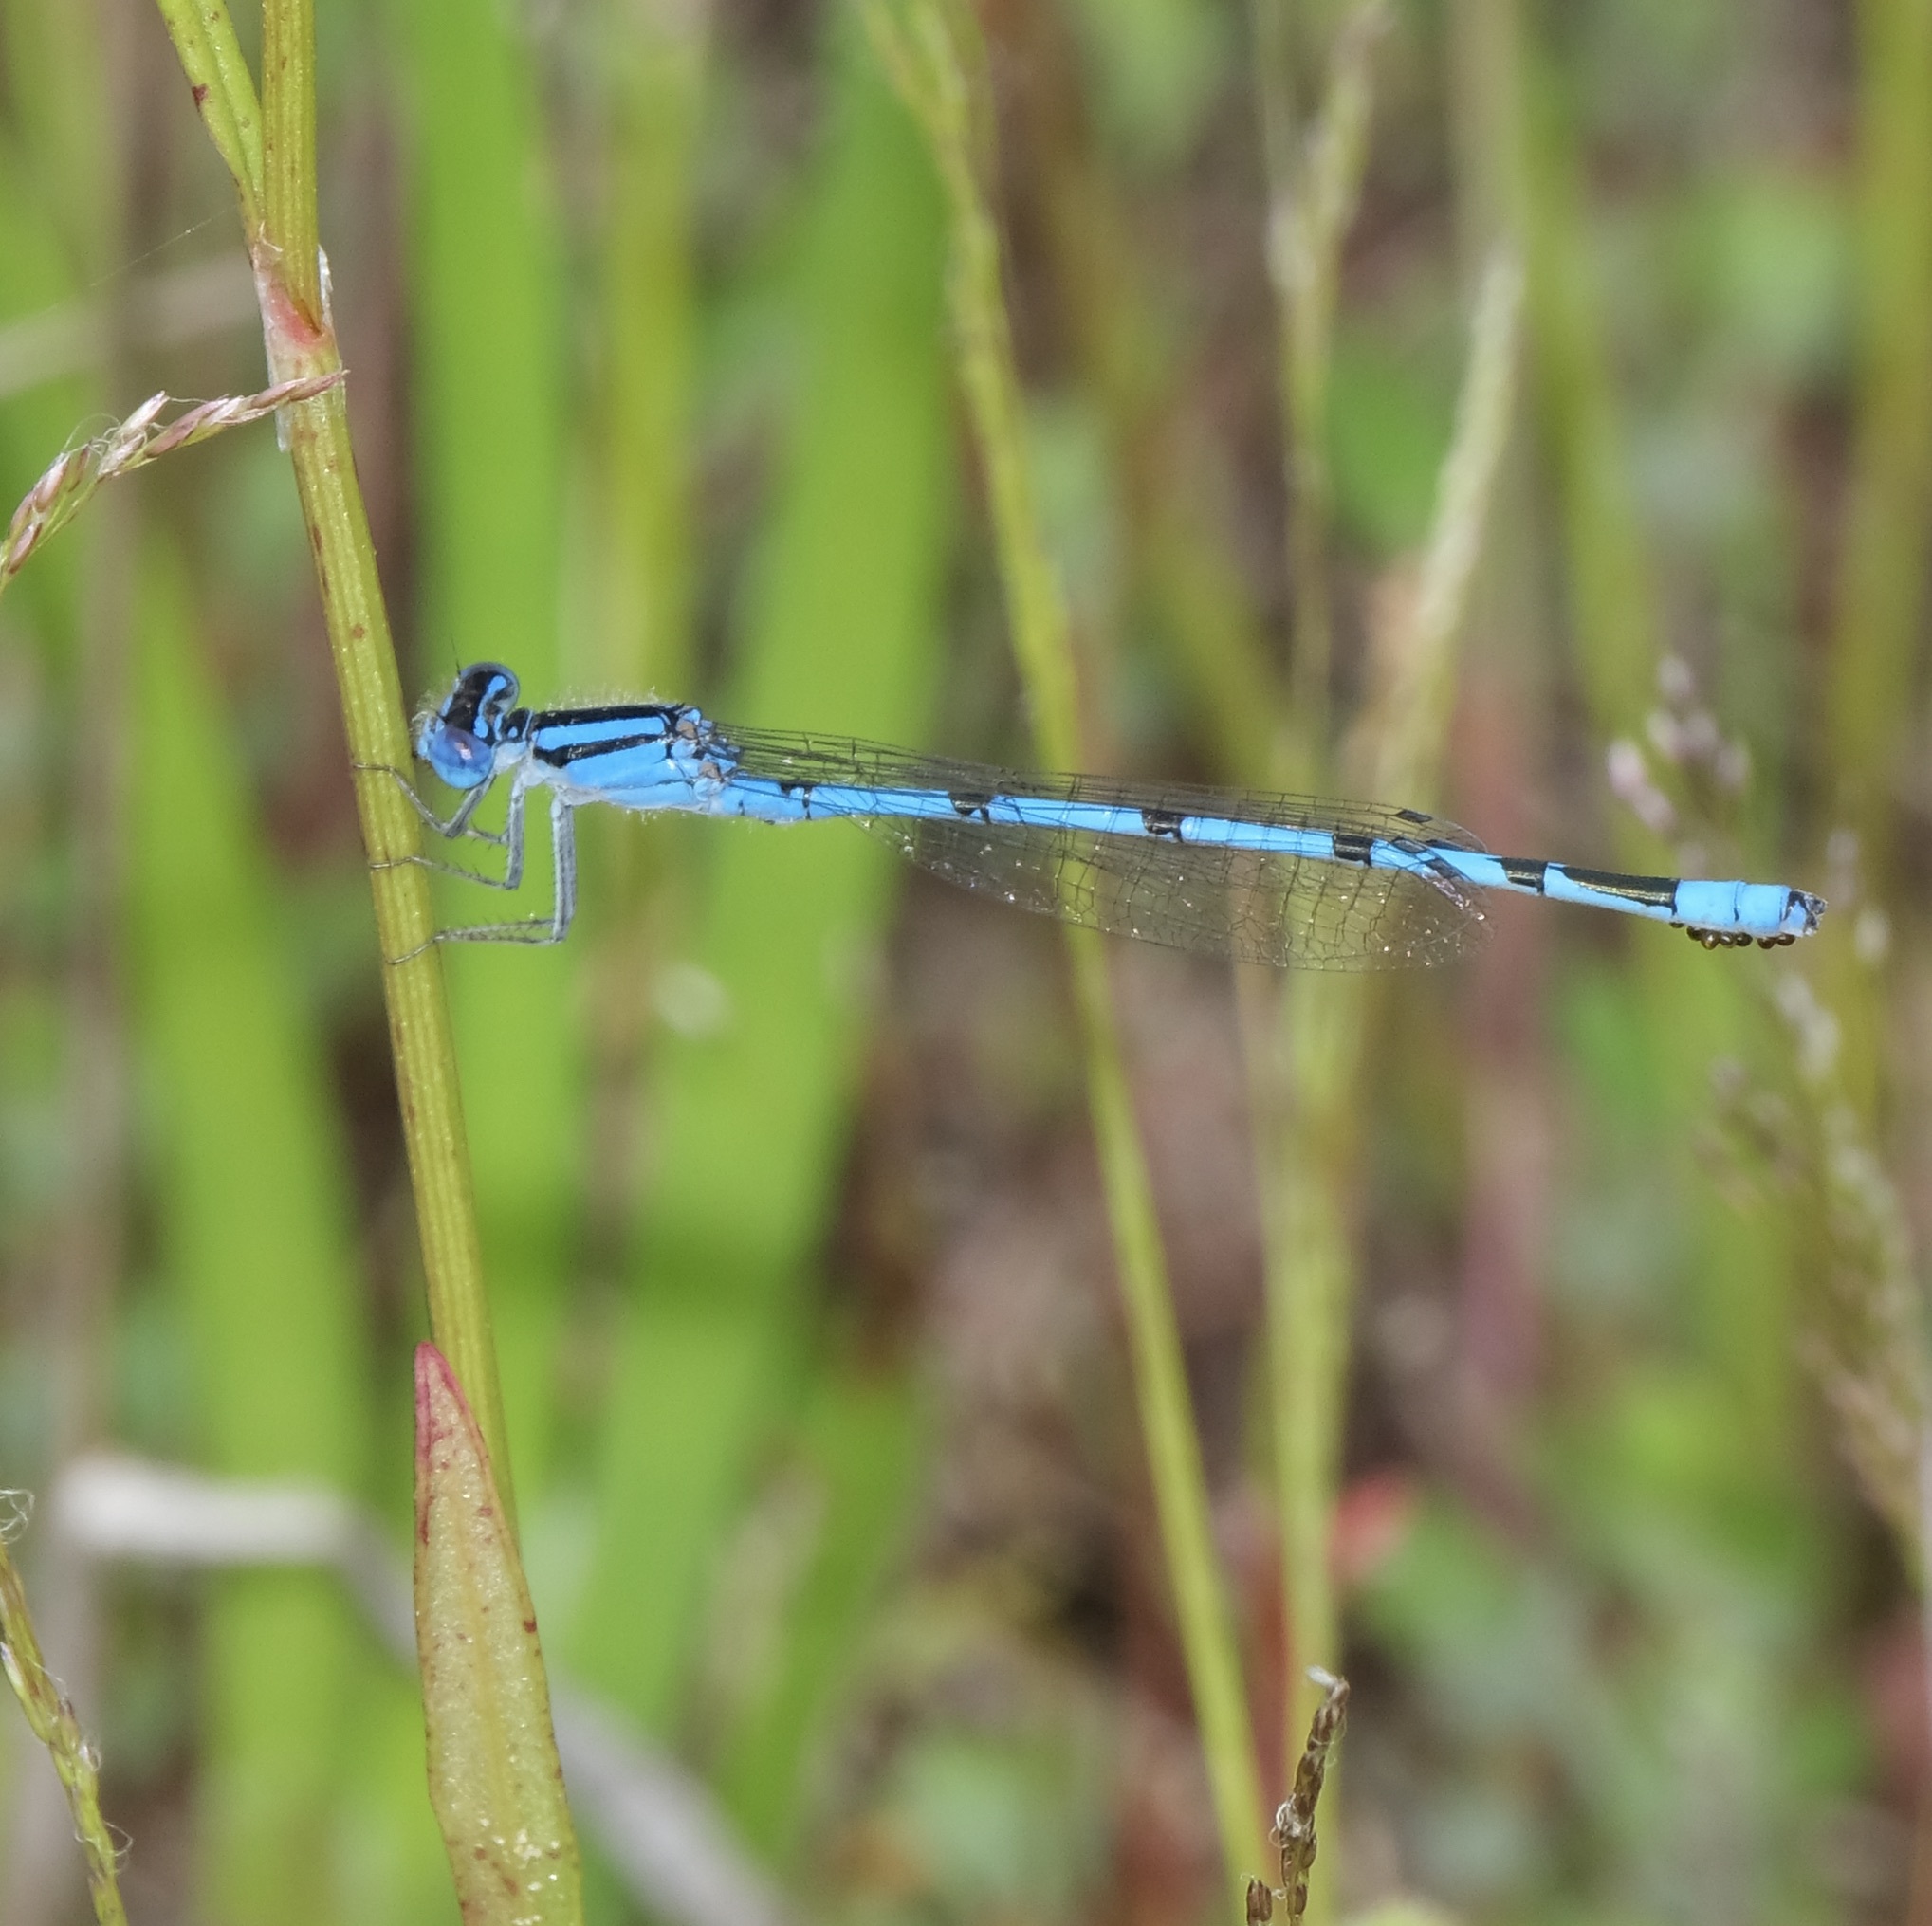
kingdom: Animalia
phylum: Arthropoda
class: Insecta
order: Odonata
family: Coenagrionidae
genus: Enallagma
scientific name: Enallagma doubledayi
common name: Atlantic bluet
